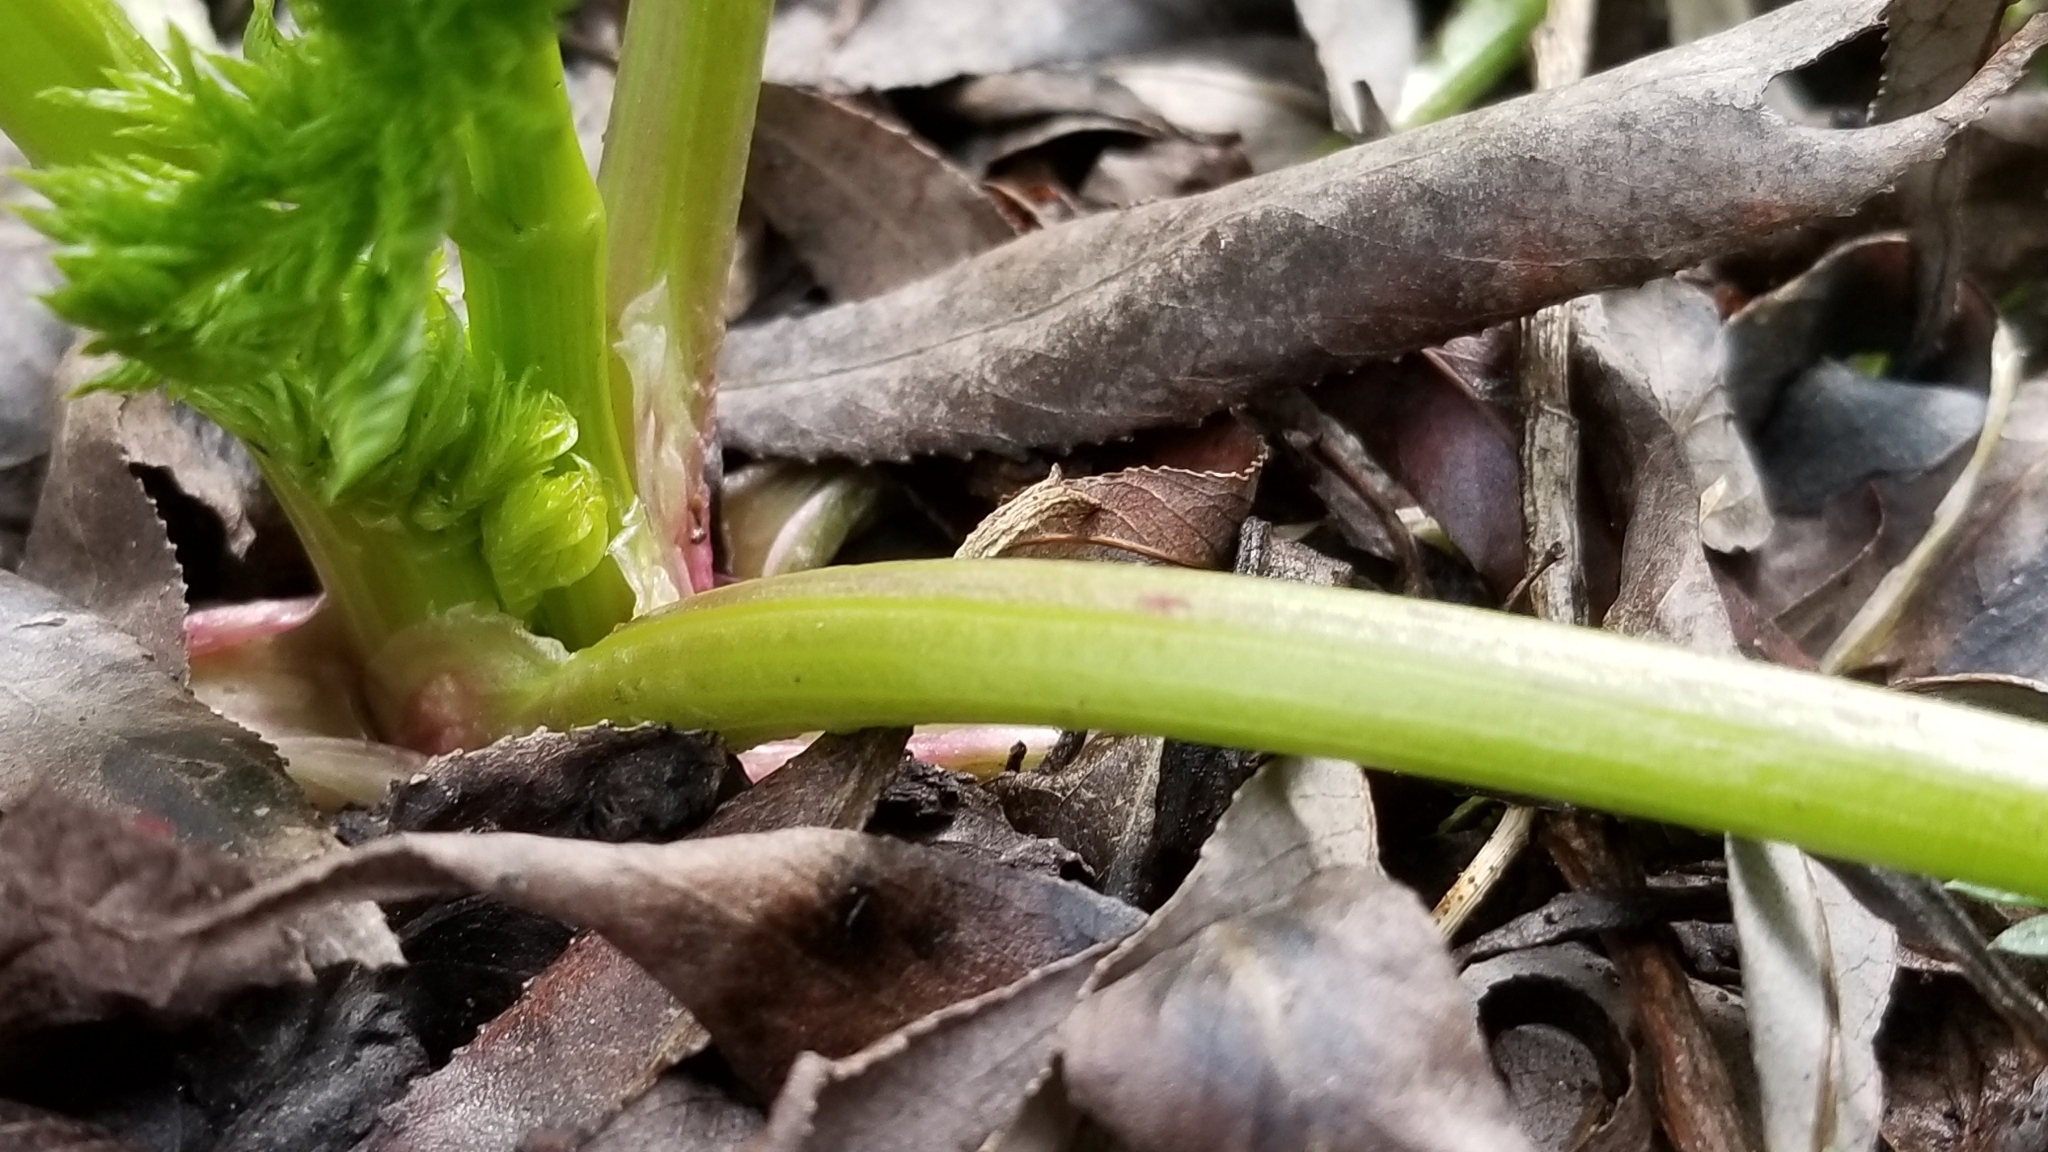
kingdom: Plantae
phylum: Tracheophyta
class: Magnoliopsida
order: Apiales
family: Apiaceae
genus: Conium
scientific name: Conium maculatum
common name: Hemlock
